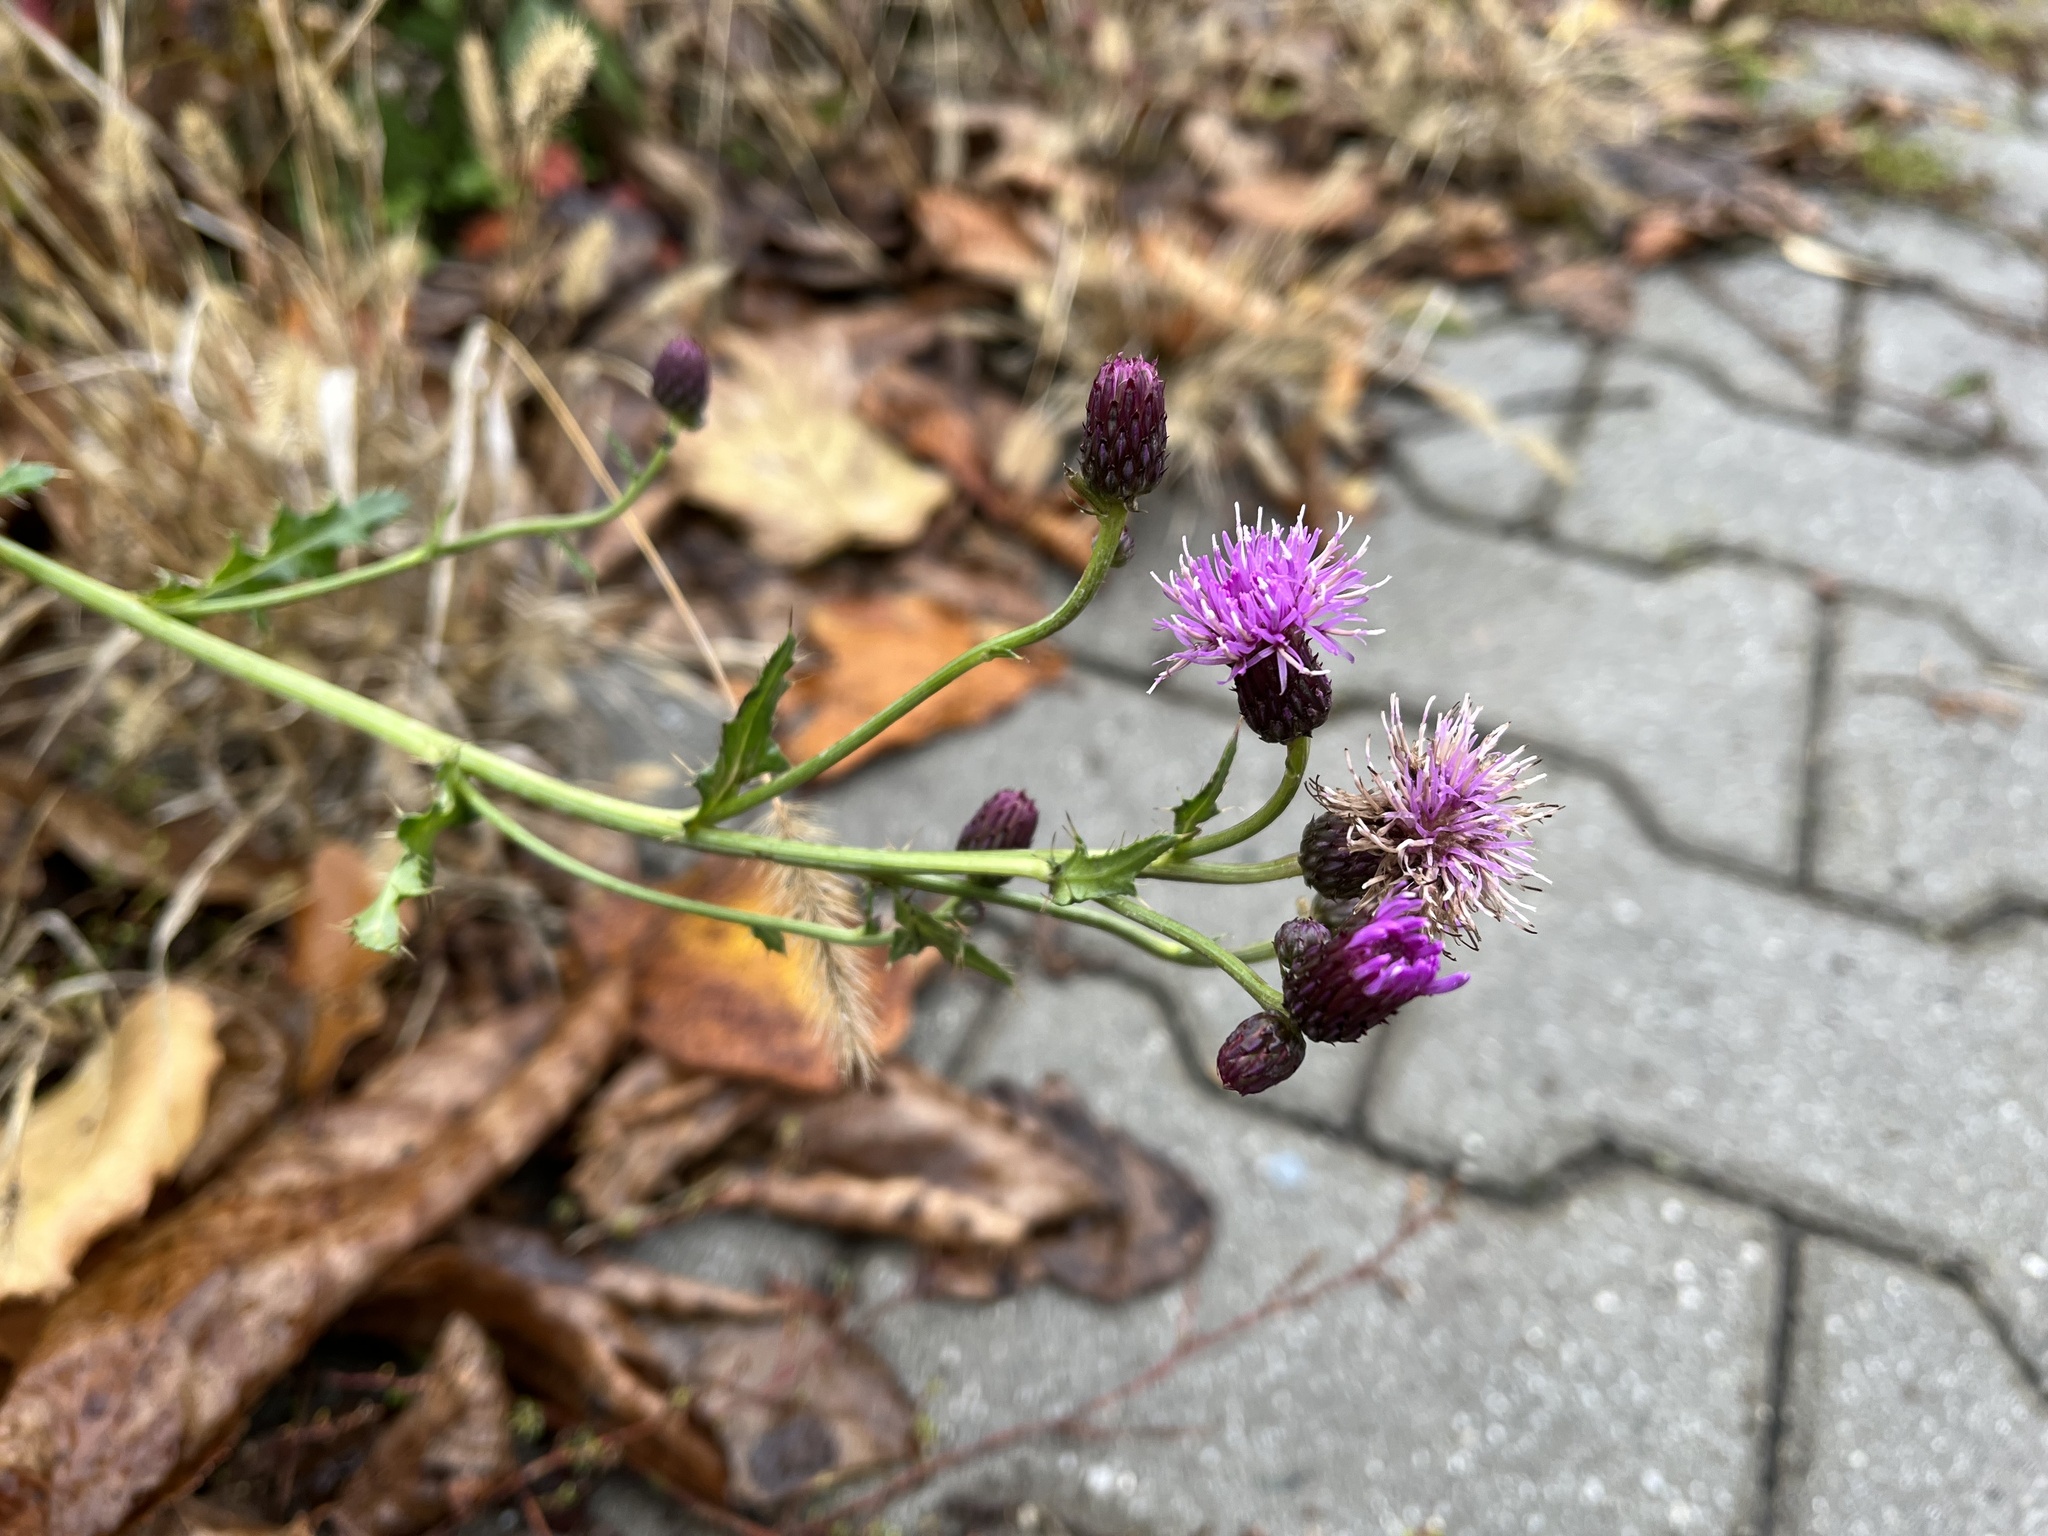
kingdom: Plantae
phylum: Tracheophyta
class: Magnoliopsida
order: Asterales
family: Asteraceae
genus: Cirsium
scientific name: Cirsium arvense
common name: Creeping thistle
